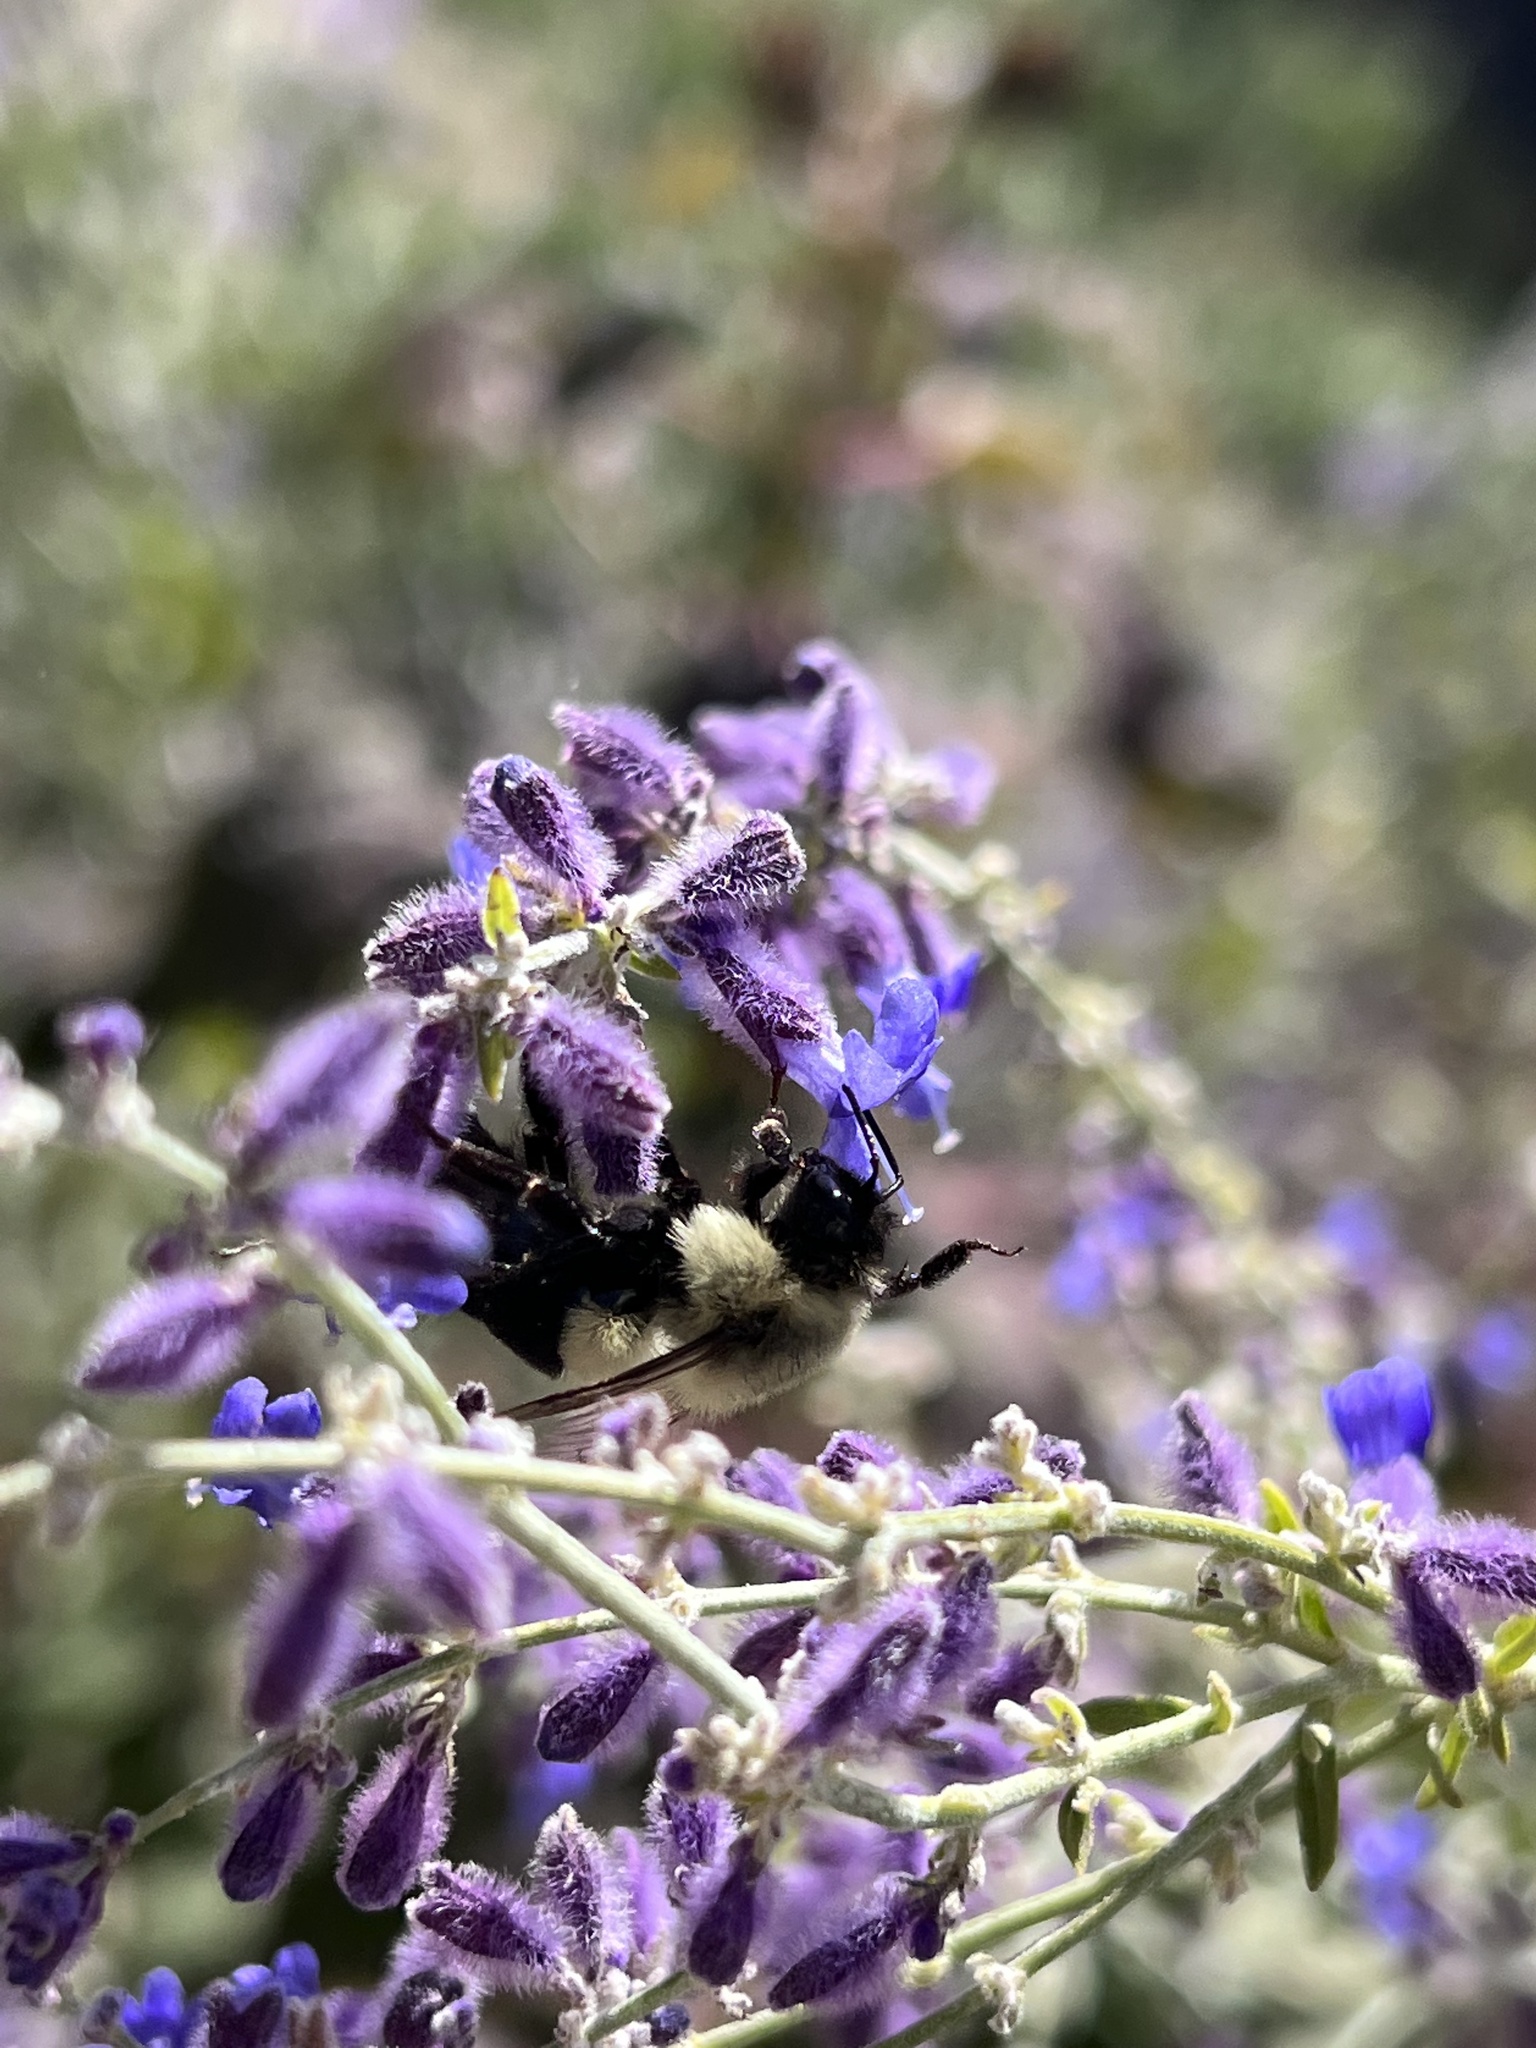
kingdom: Animalia
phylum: Arthropoda
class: Insecta
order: Hymenoptera
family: Apidae
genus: Bombus
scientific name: Bombus impatiens
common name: Common eastern bumble bee
